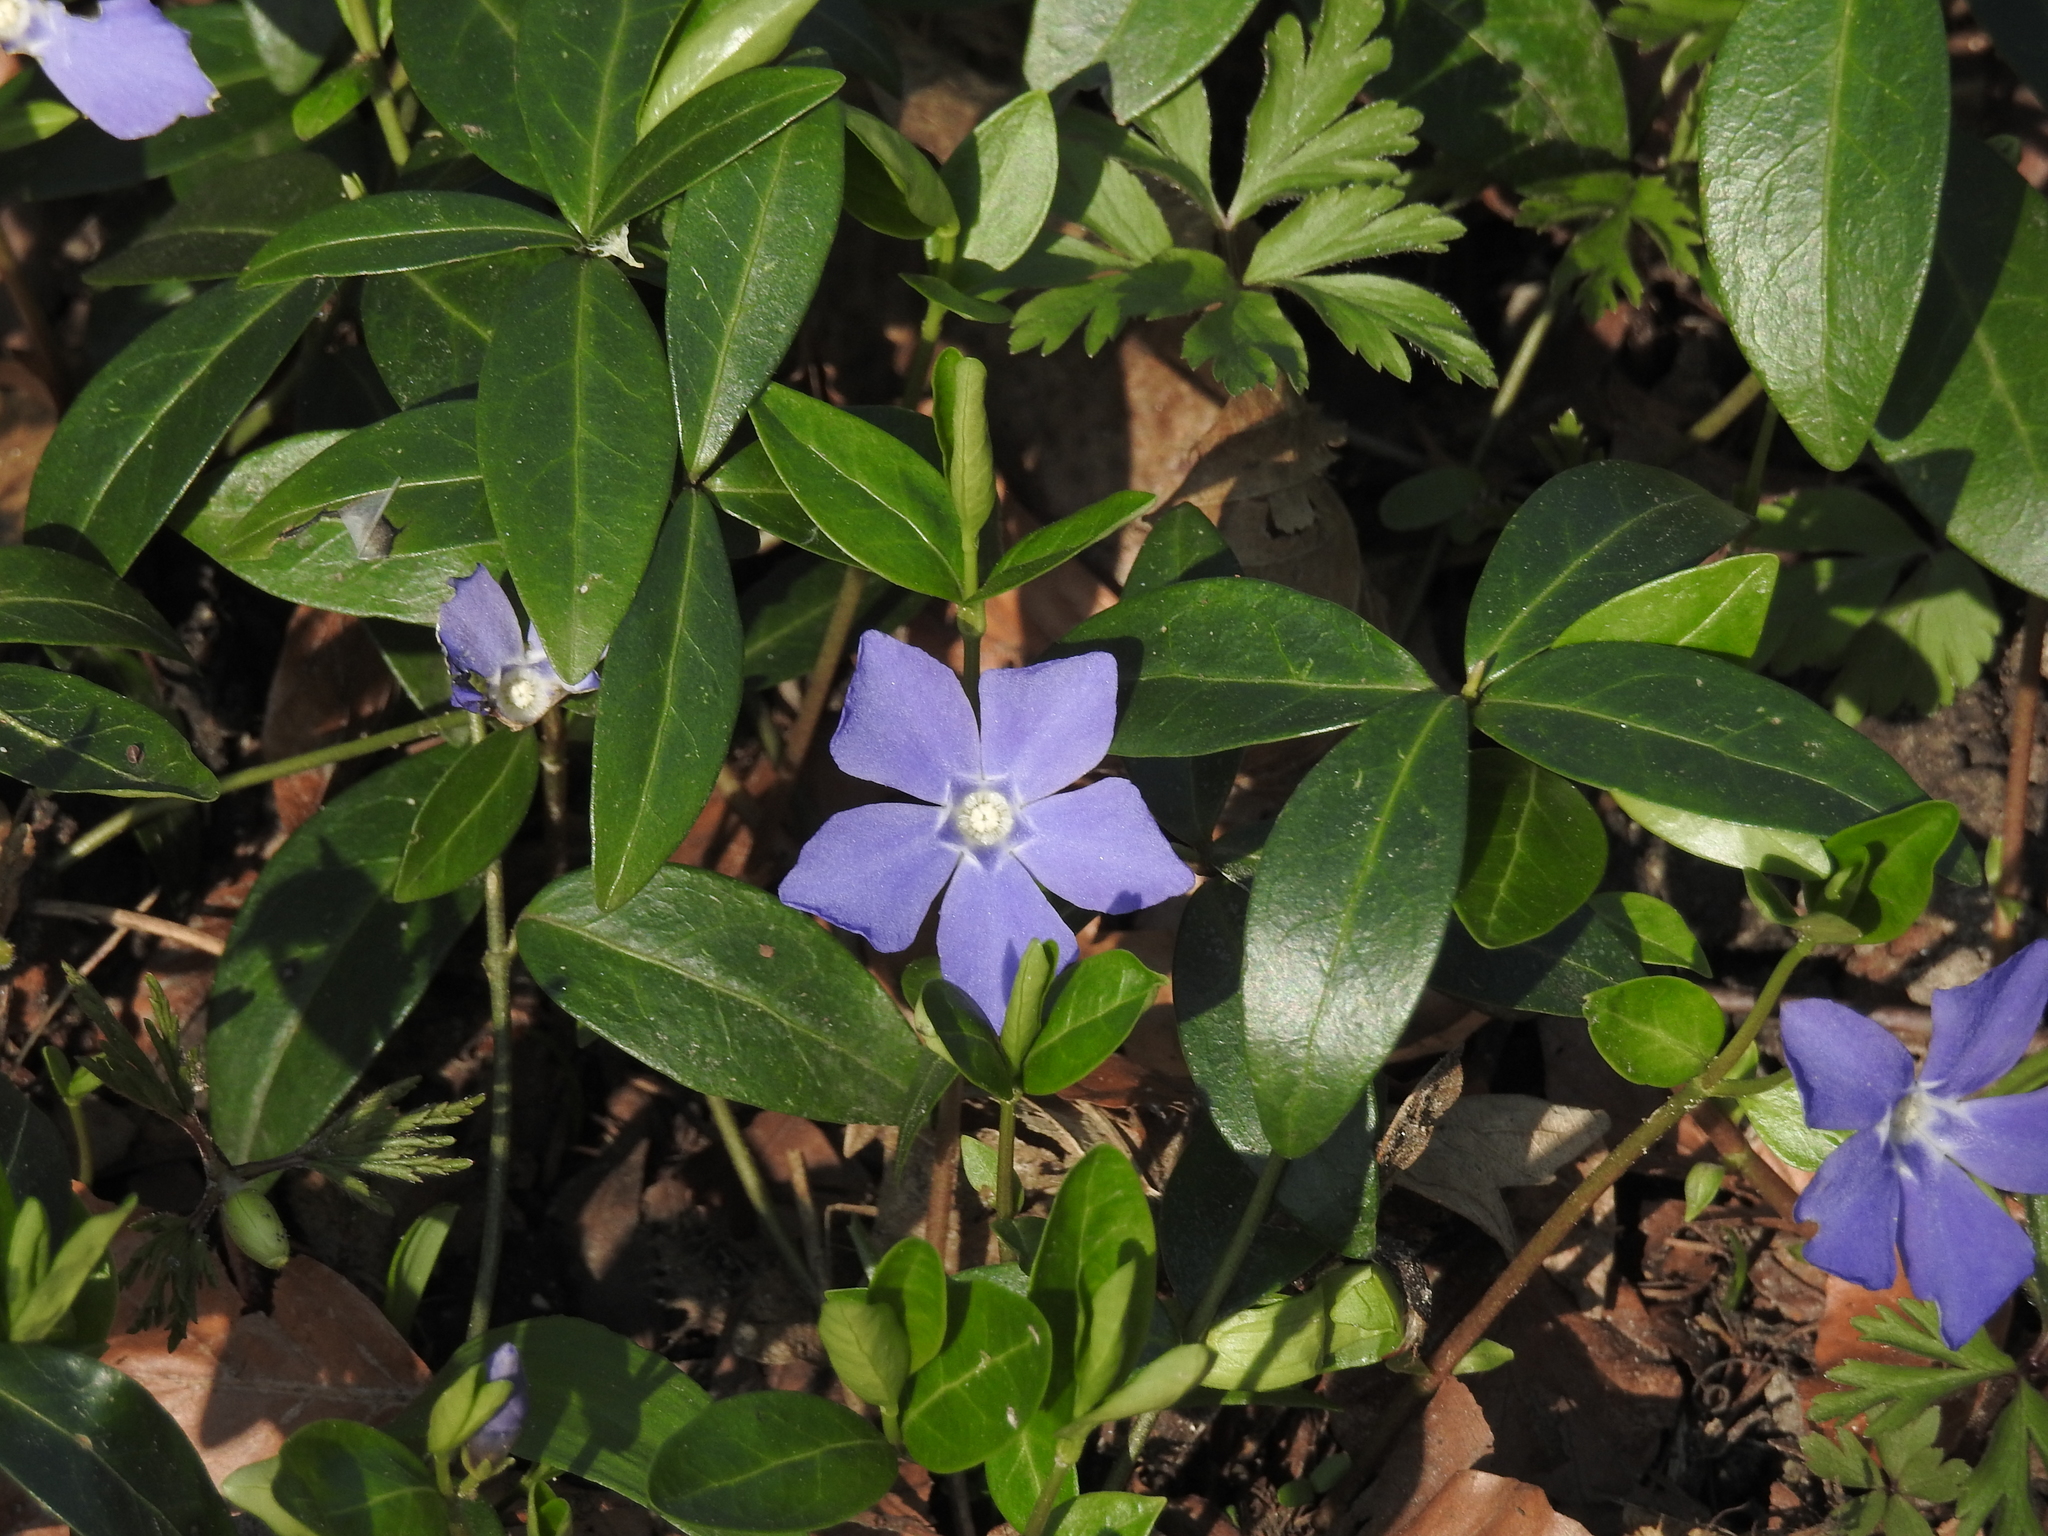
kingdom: Plantae
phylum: Tracheophyta
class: Magnoliopsida
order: Gentianales
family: Apocynaceae
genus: Vinca
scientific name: Vinca minor
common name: Lesser periwinkle
